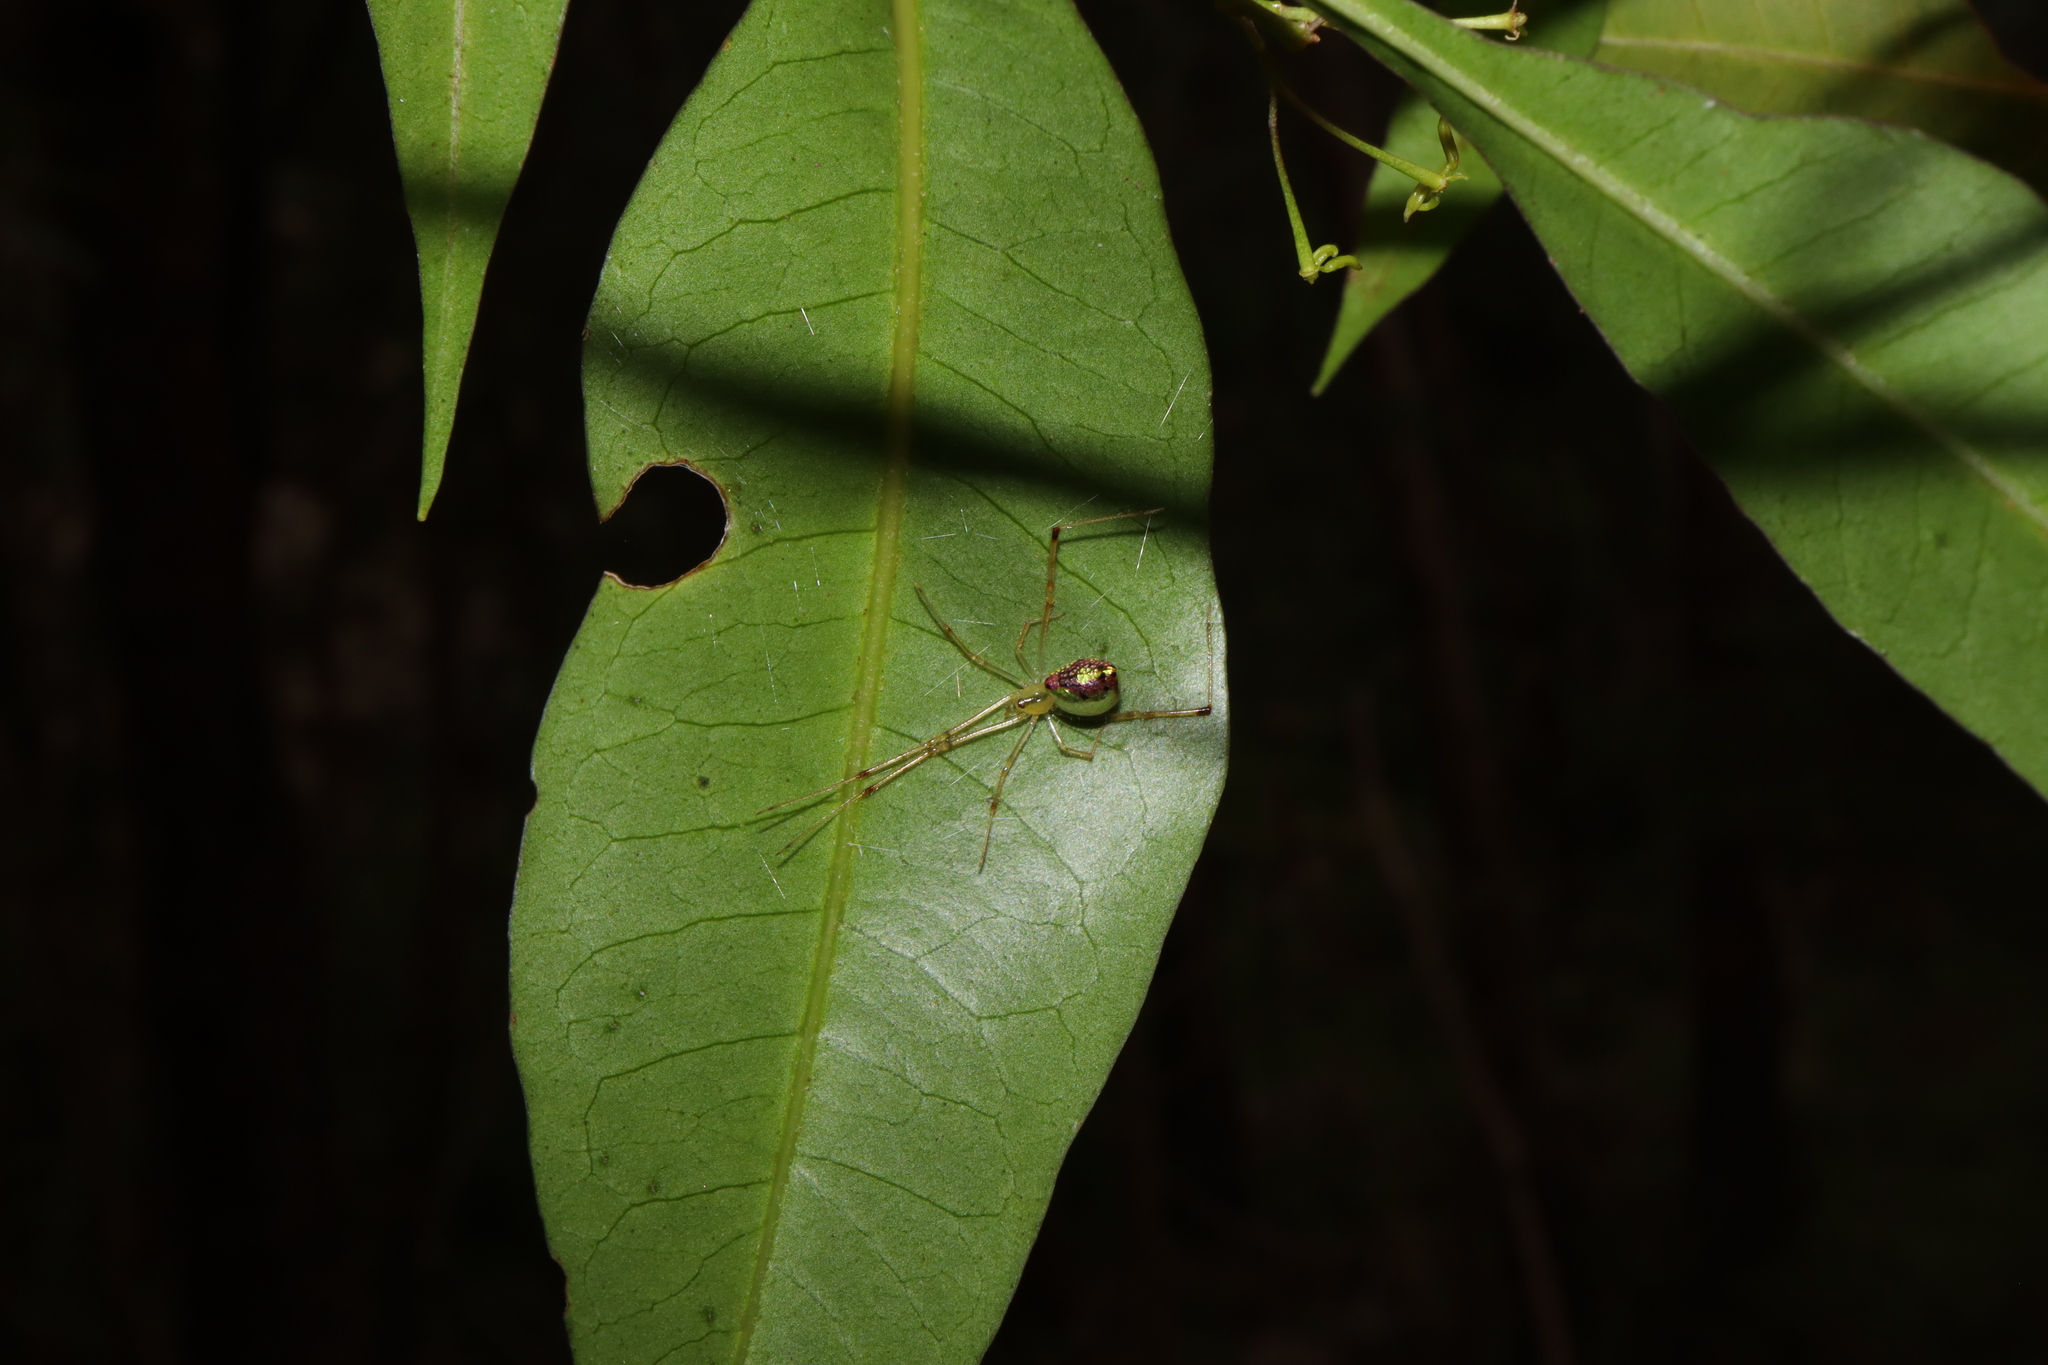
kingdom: Animalia
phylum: Arthropoda
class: Arachnida
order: Araneae
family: Theridiidae
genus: Thwaitesia
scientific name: Thwaitesia nigronodosa
